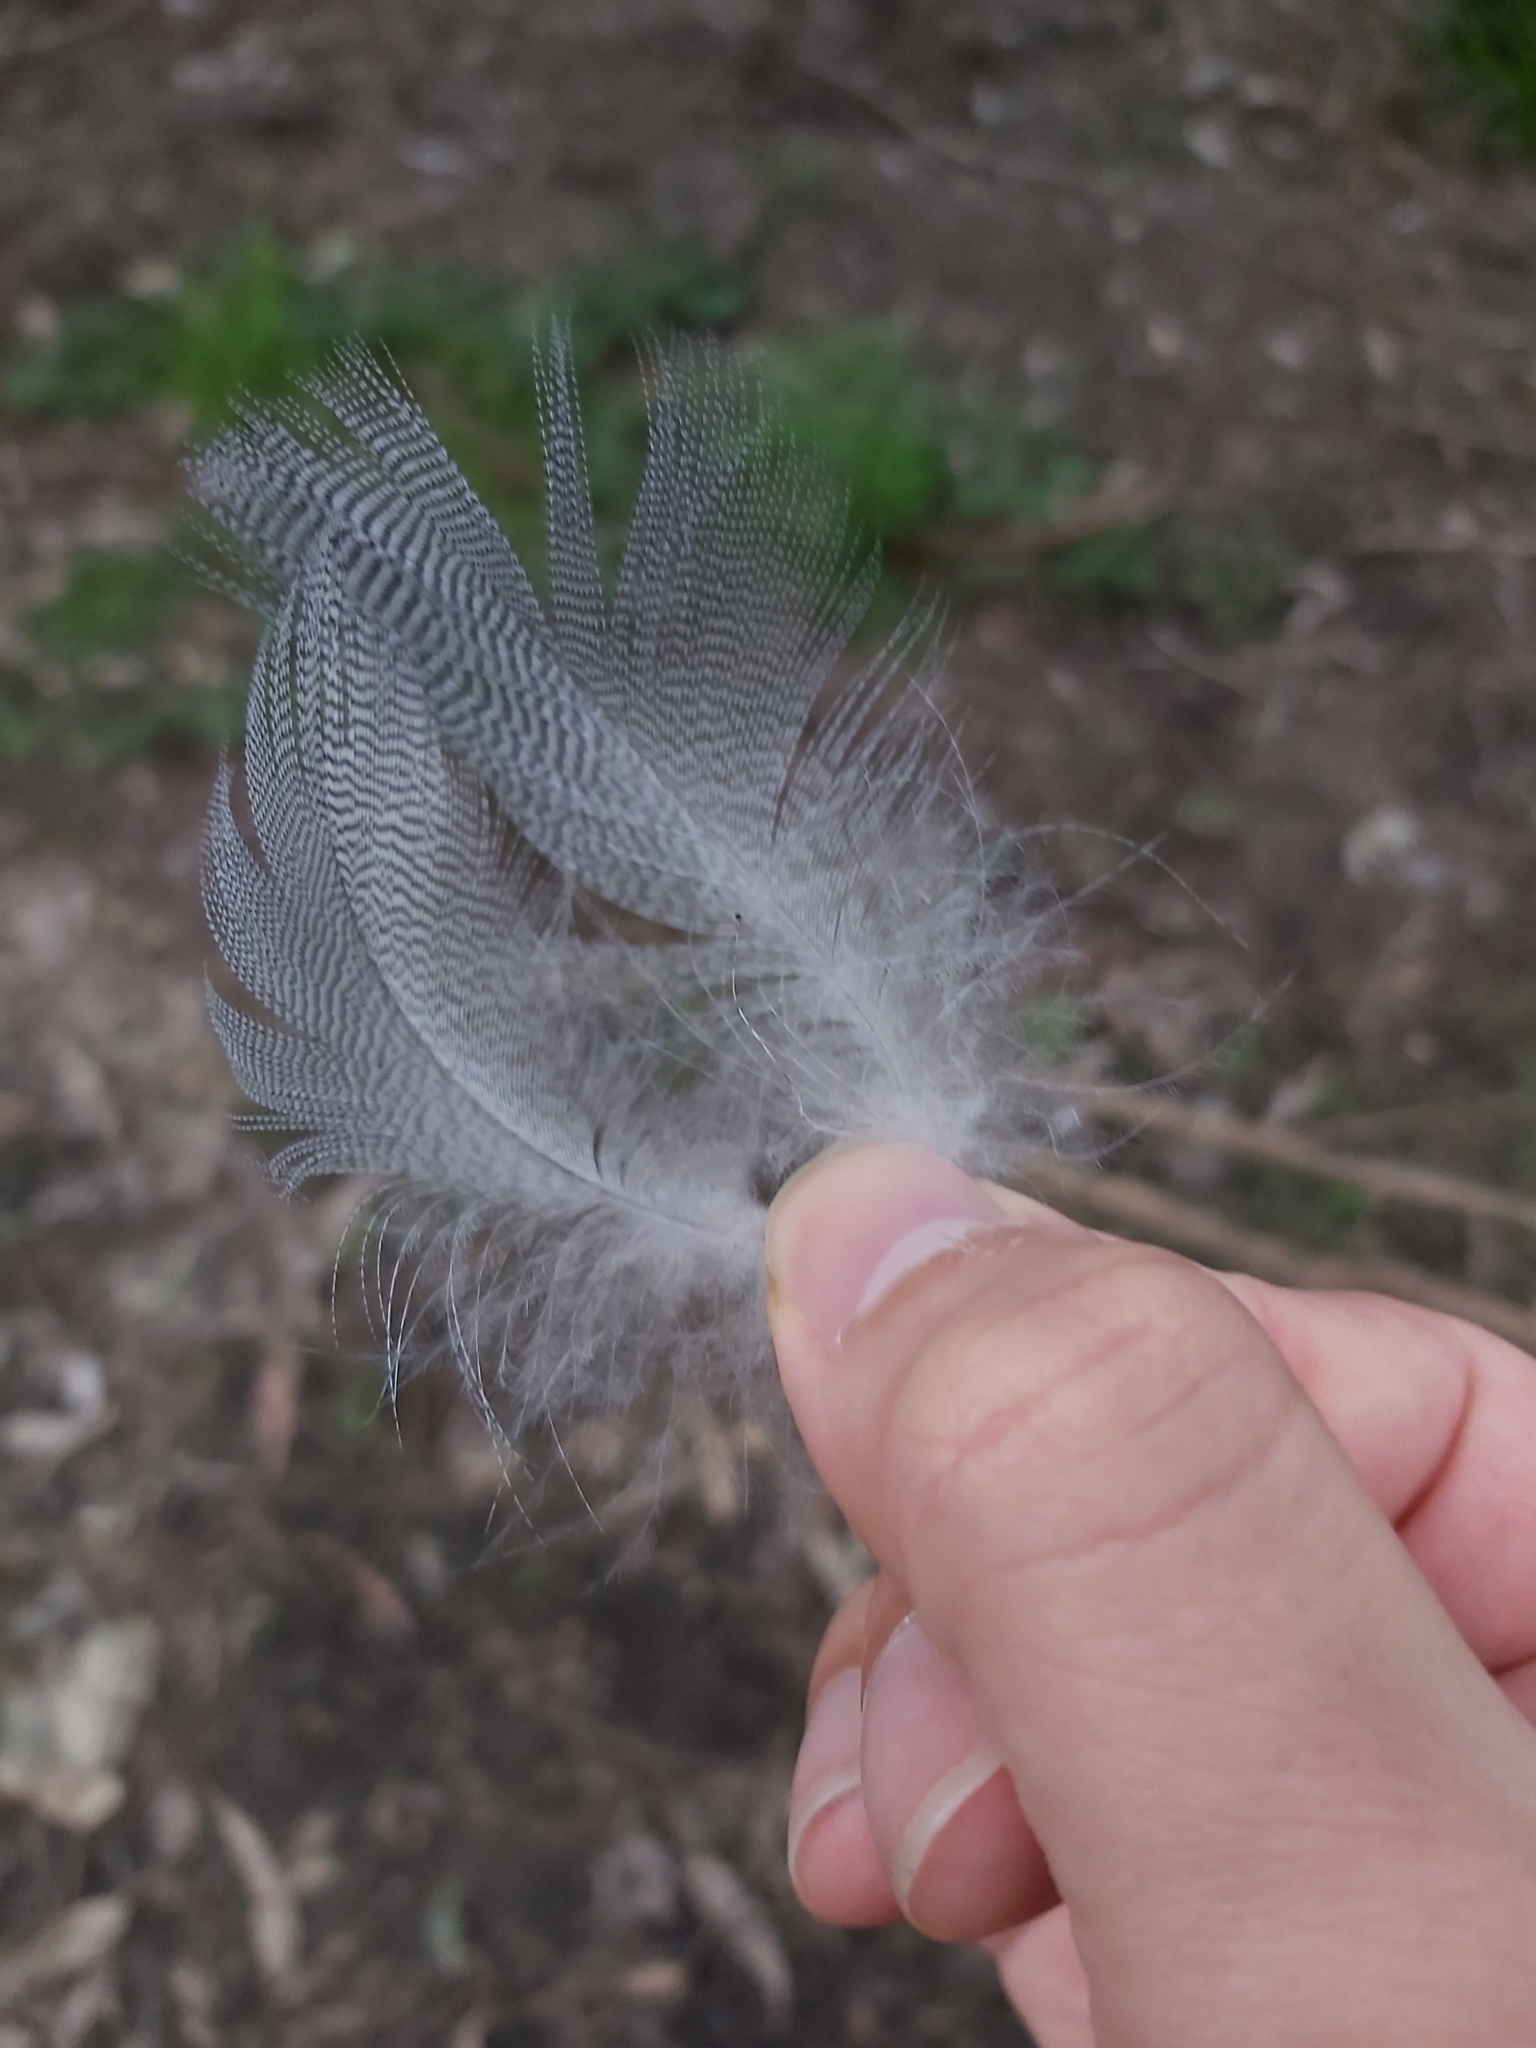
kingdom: Animalia
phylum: Chordata
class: Aves
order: Anseriformes
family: Anatidae
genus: Chenonetta
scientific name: Chenonetta jubata
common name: Maned duck
